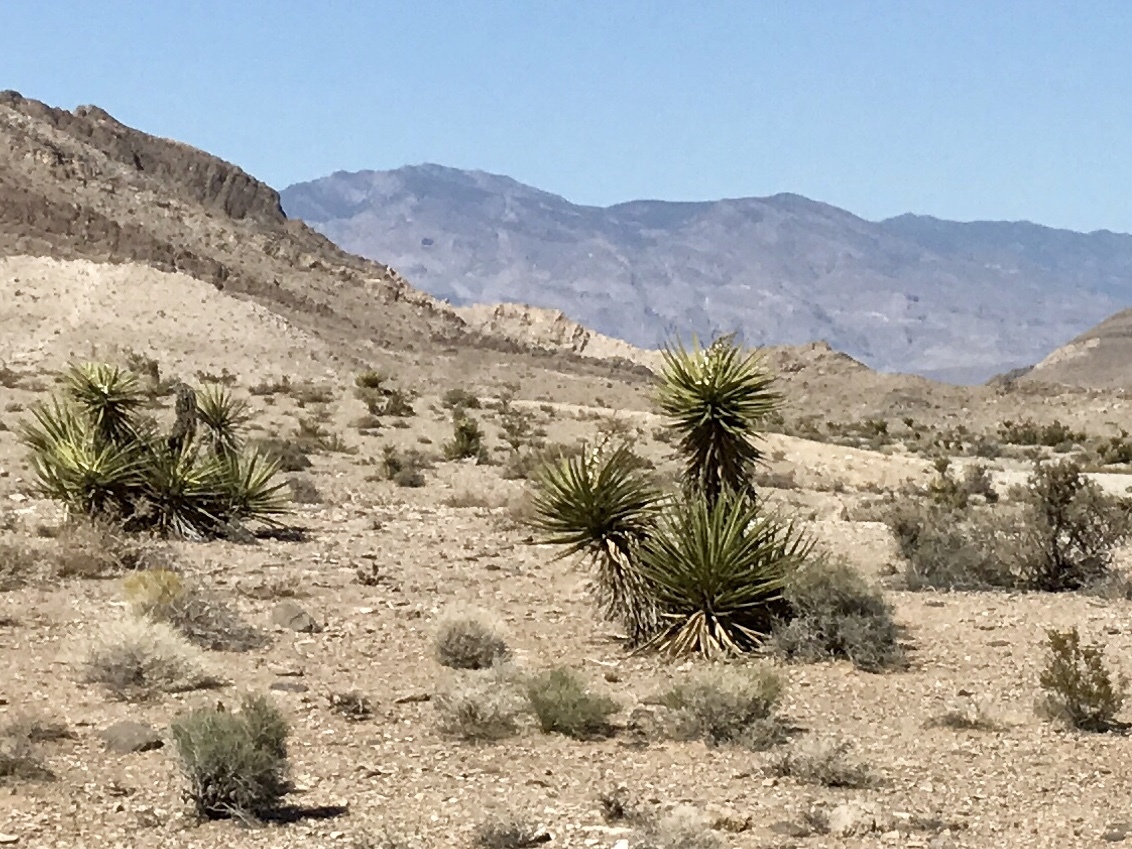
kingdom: Plantae
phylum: Tracheophyta
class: Liliopsida
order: Asparagales
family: Asparagaceae
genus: Yucca
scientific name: Yucca schidigera
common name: Mojave yucca
